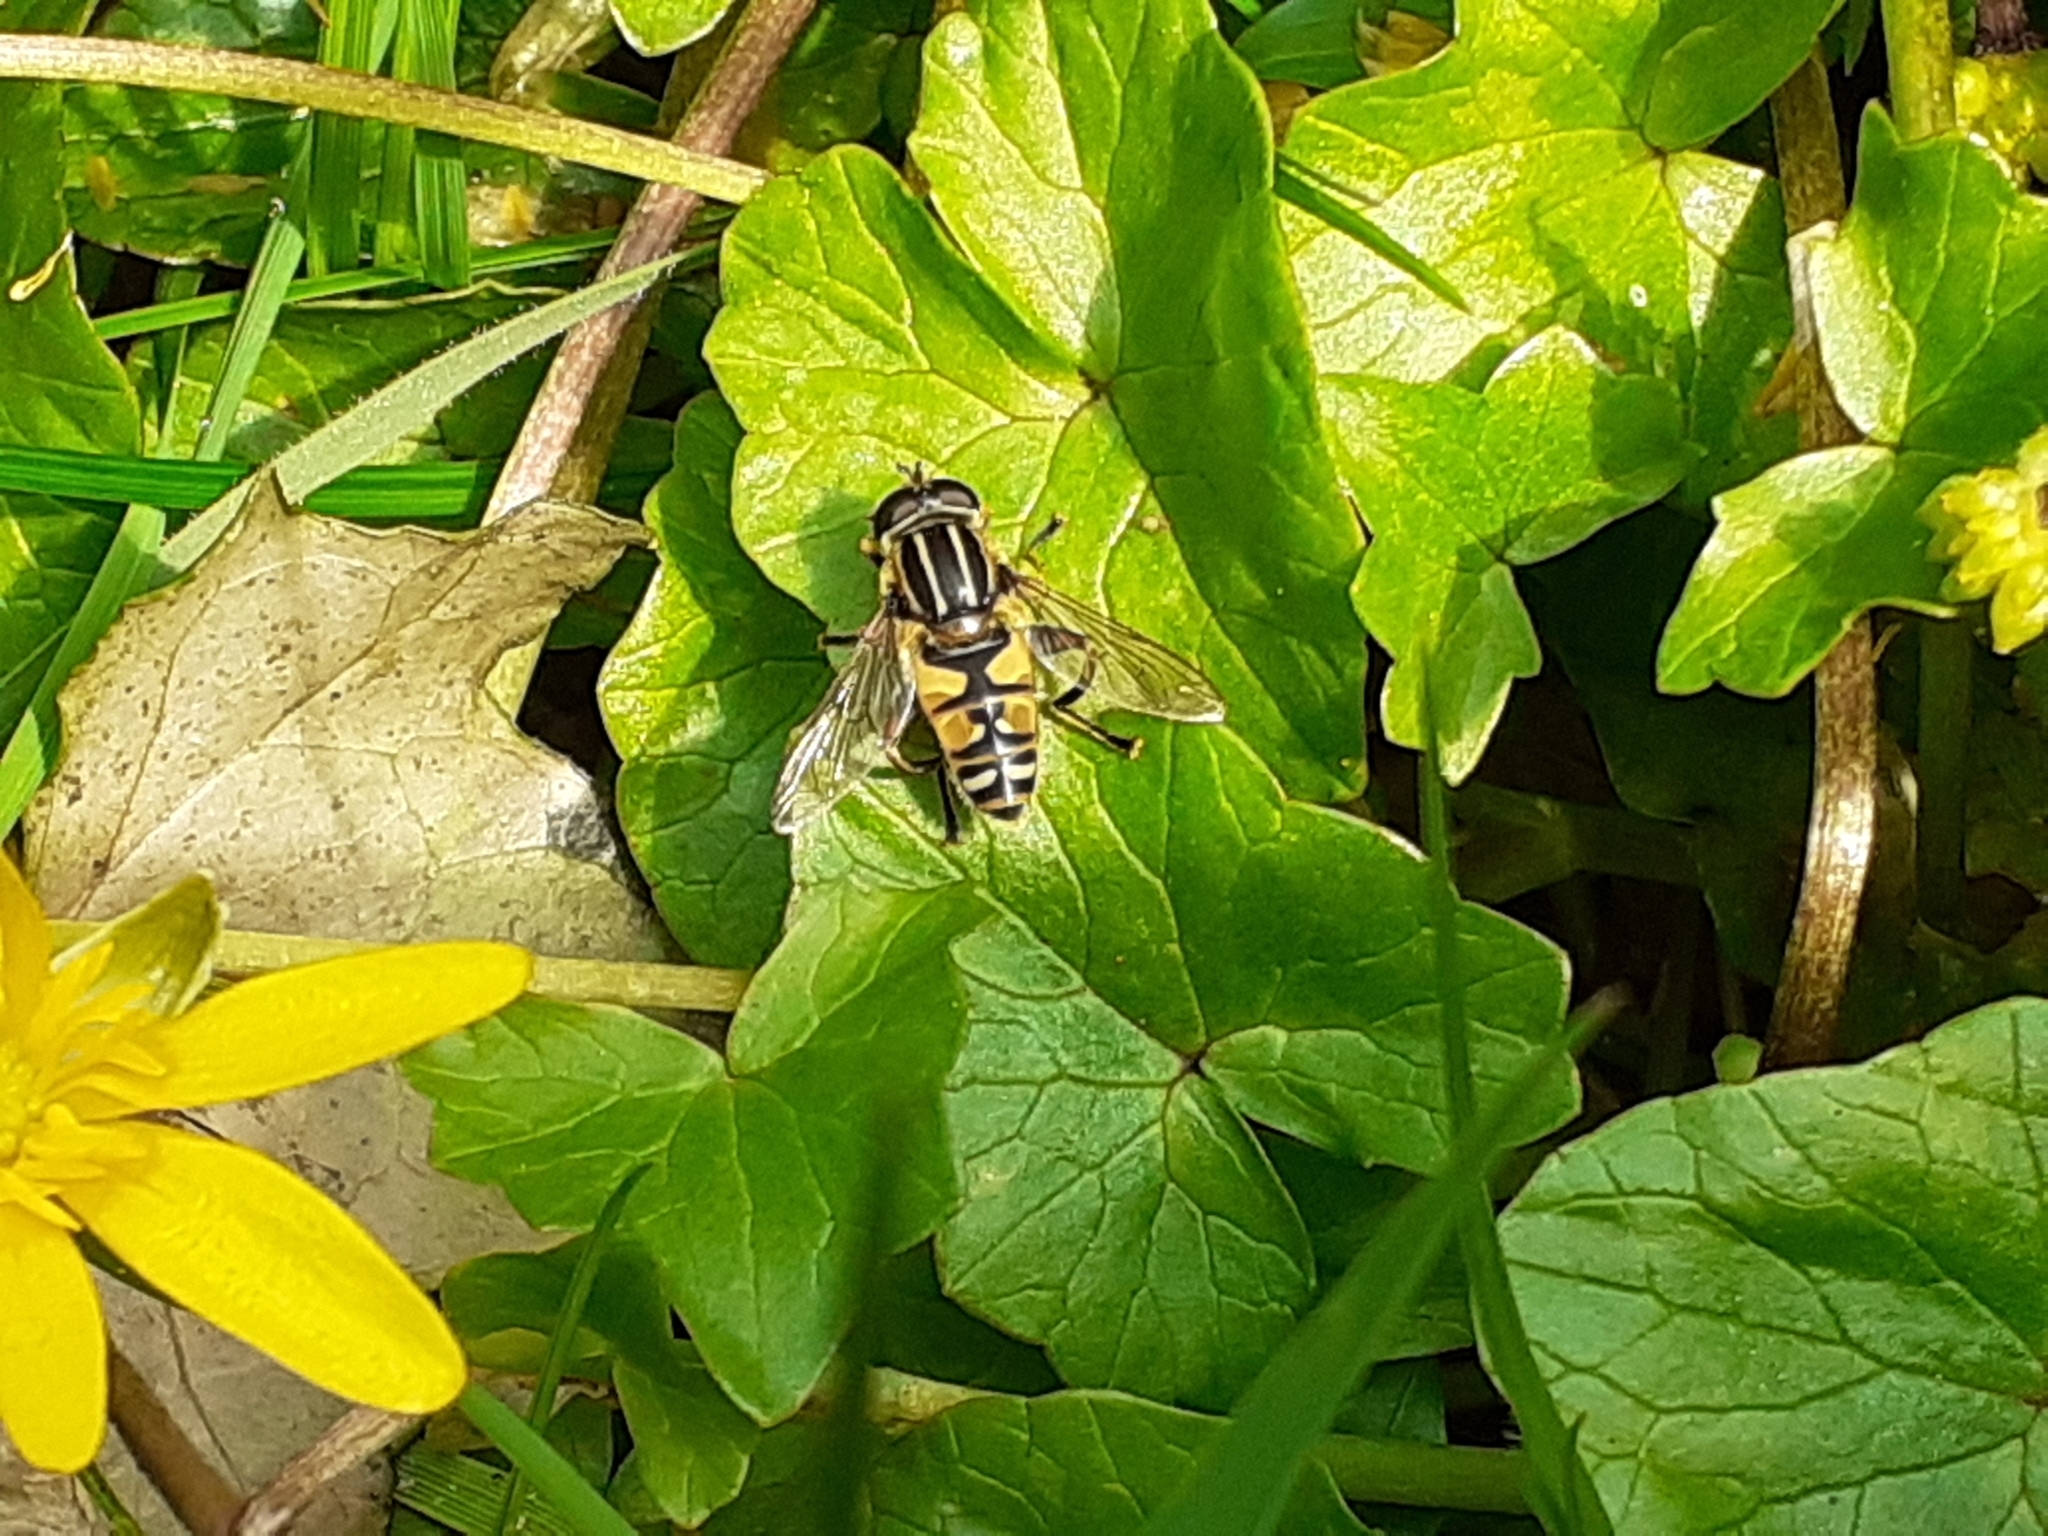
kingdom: Animalia
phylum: Arthropoda
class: Insecta
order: Diptera
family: Syrphidae
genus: Helophilus
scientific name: Helophilus pendulus
